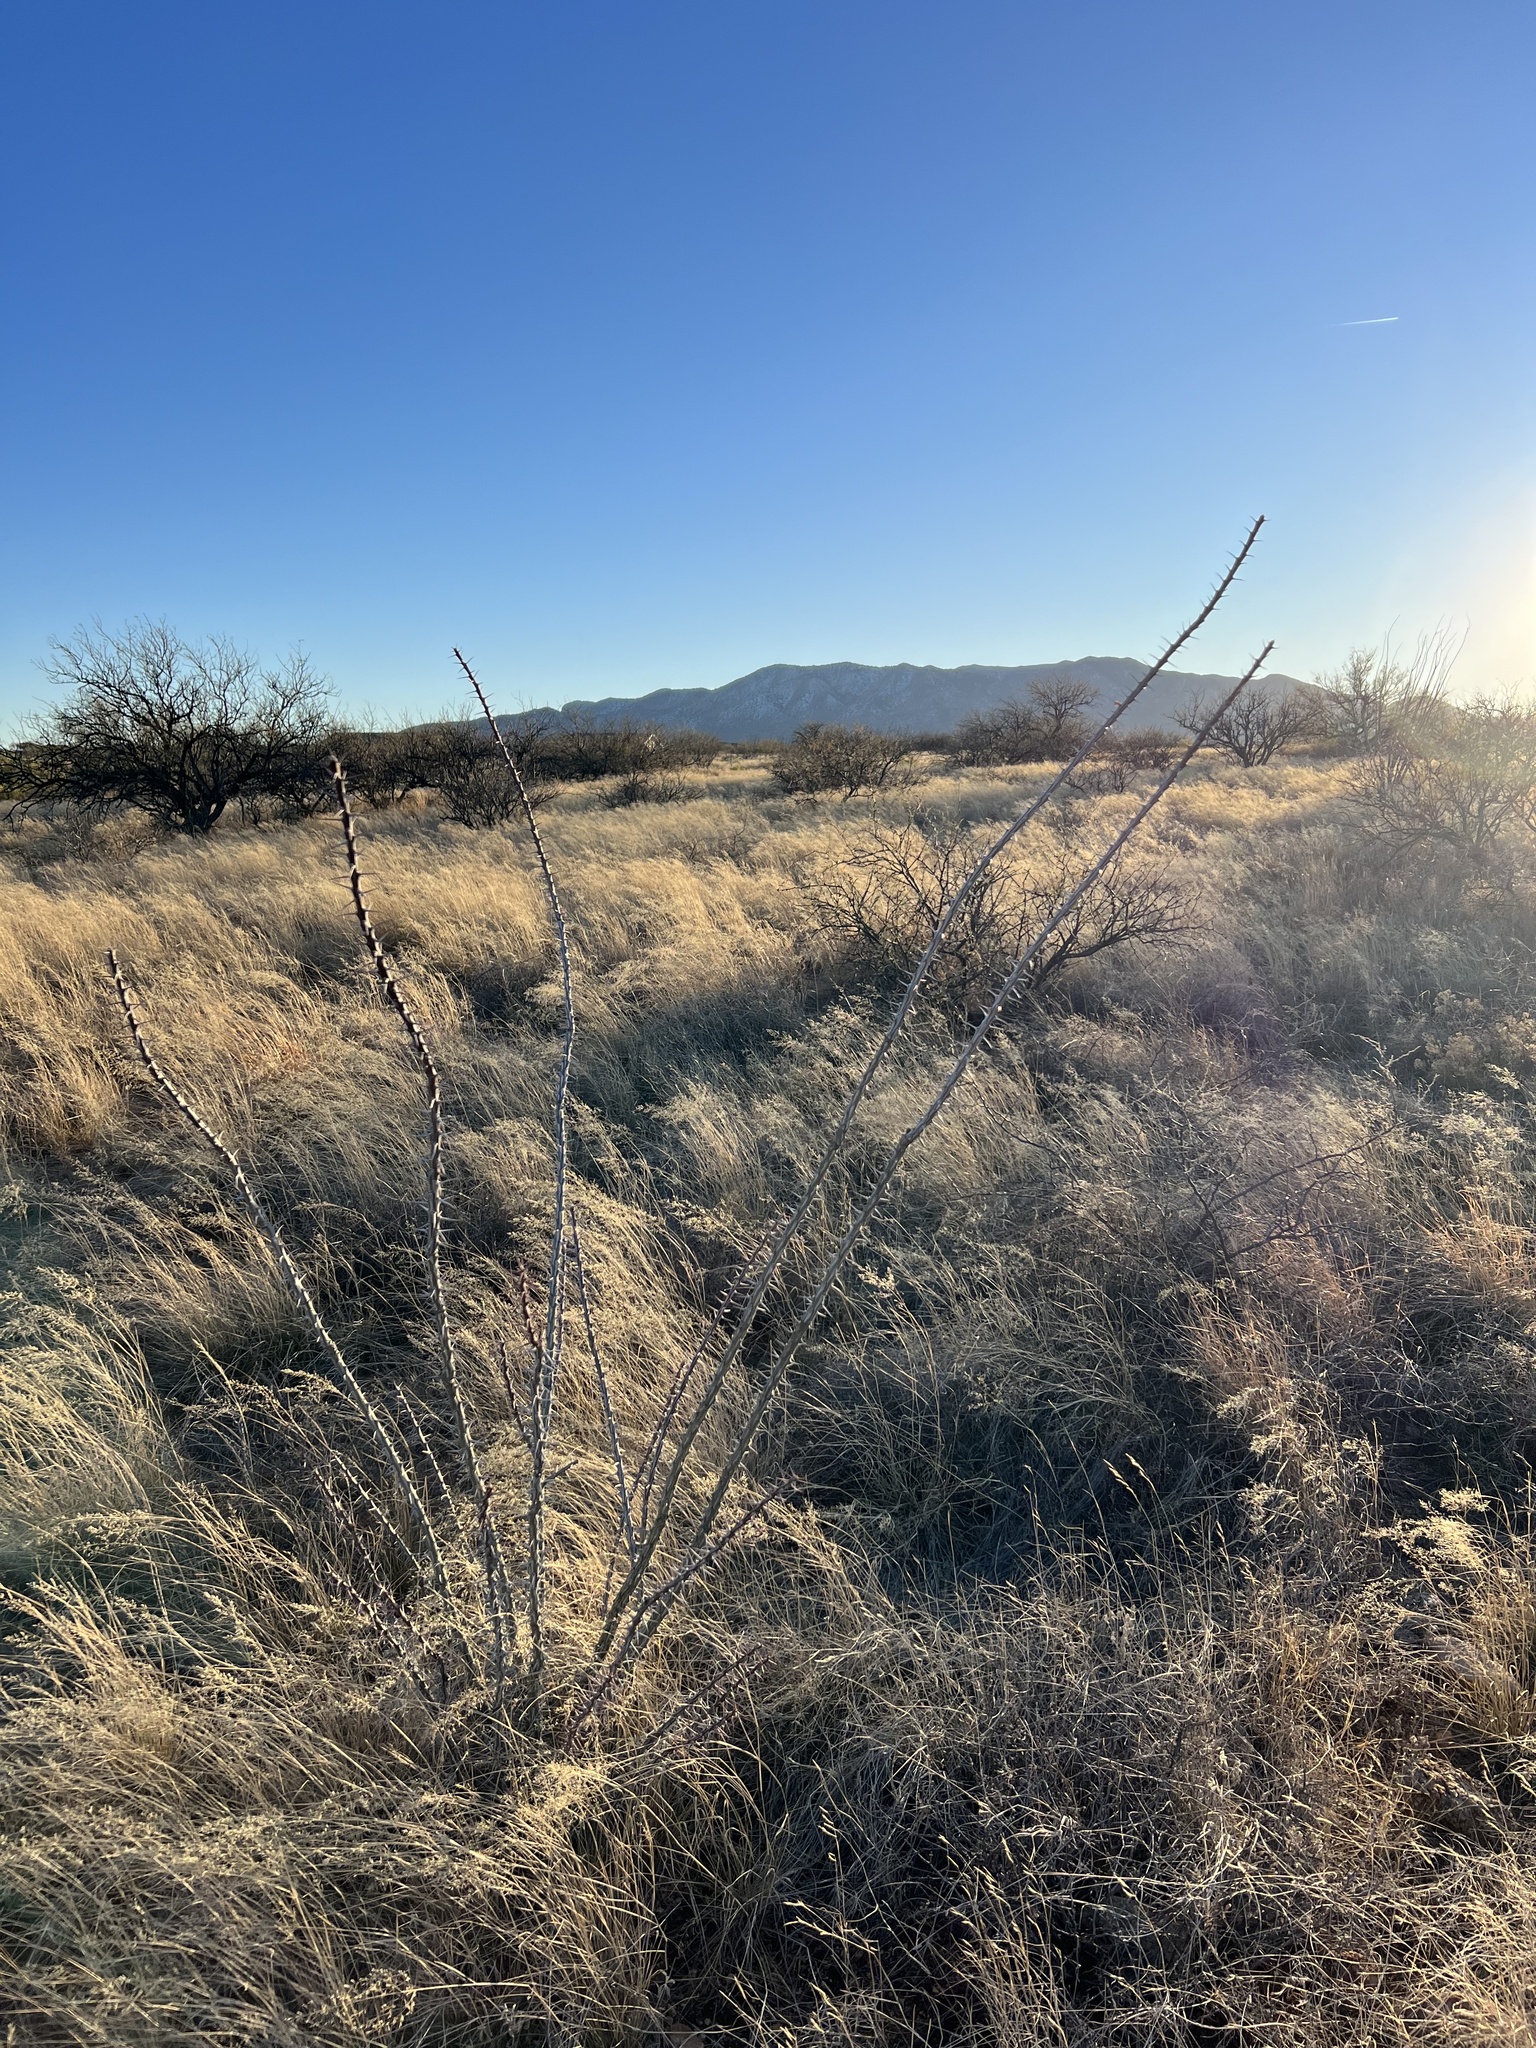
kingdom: Plantae
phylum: Tracheophyta
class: Magnoliopsida
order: Ericales
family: Fouquieriaceae
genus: Fouquieria
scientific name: Fouquieria splendens
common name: Vine-cactus
